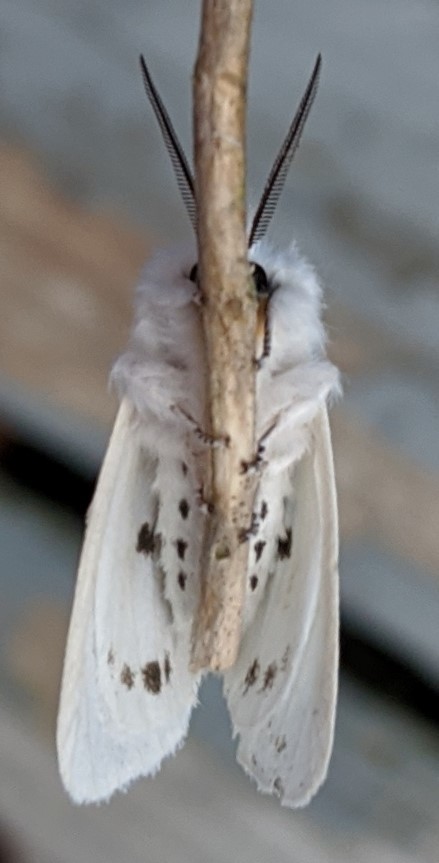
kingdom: Animalia
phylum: Arthropoda
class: Insecta
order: Lepidoptera
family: Erebidae
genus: Spilosoma
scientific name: Spilosoma virginica
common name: Virginia tiger moth
